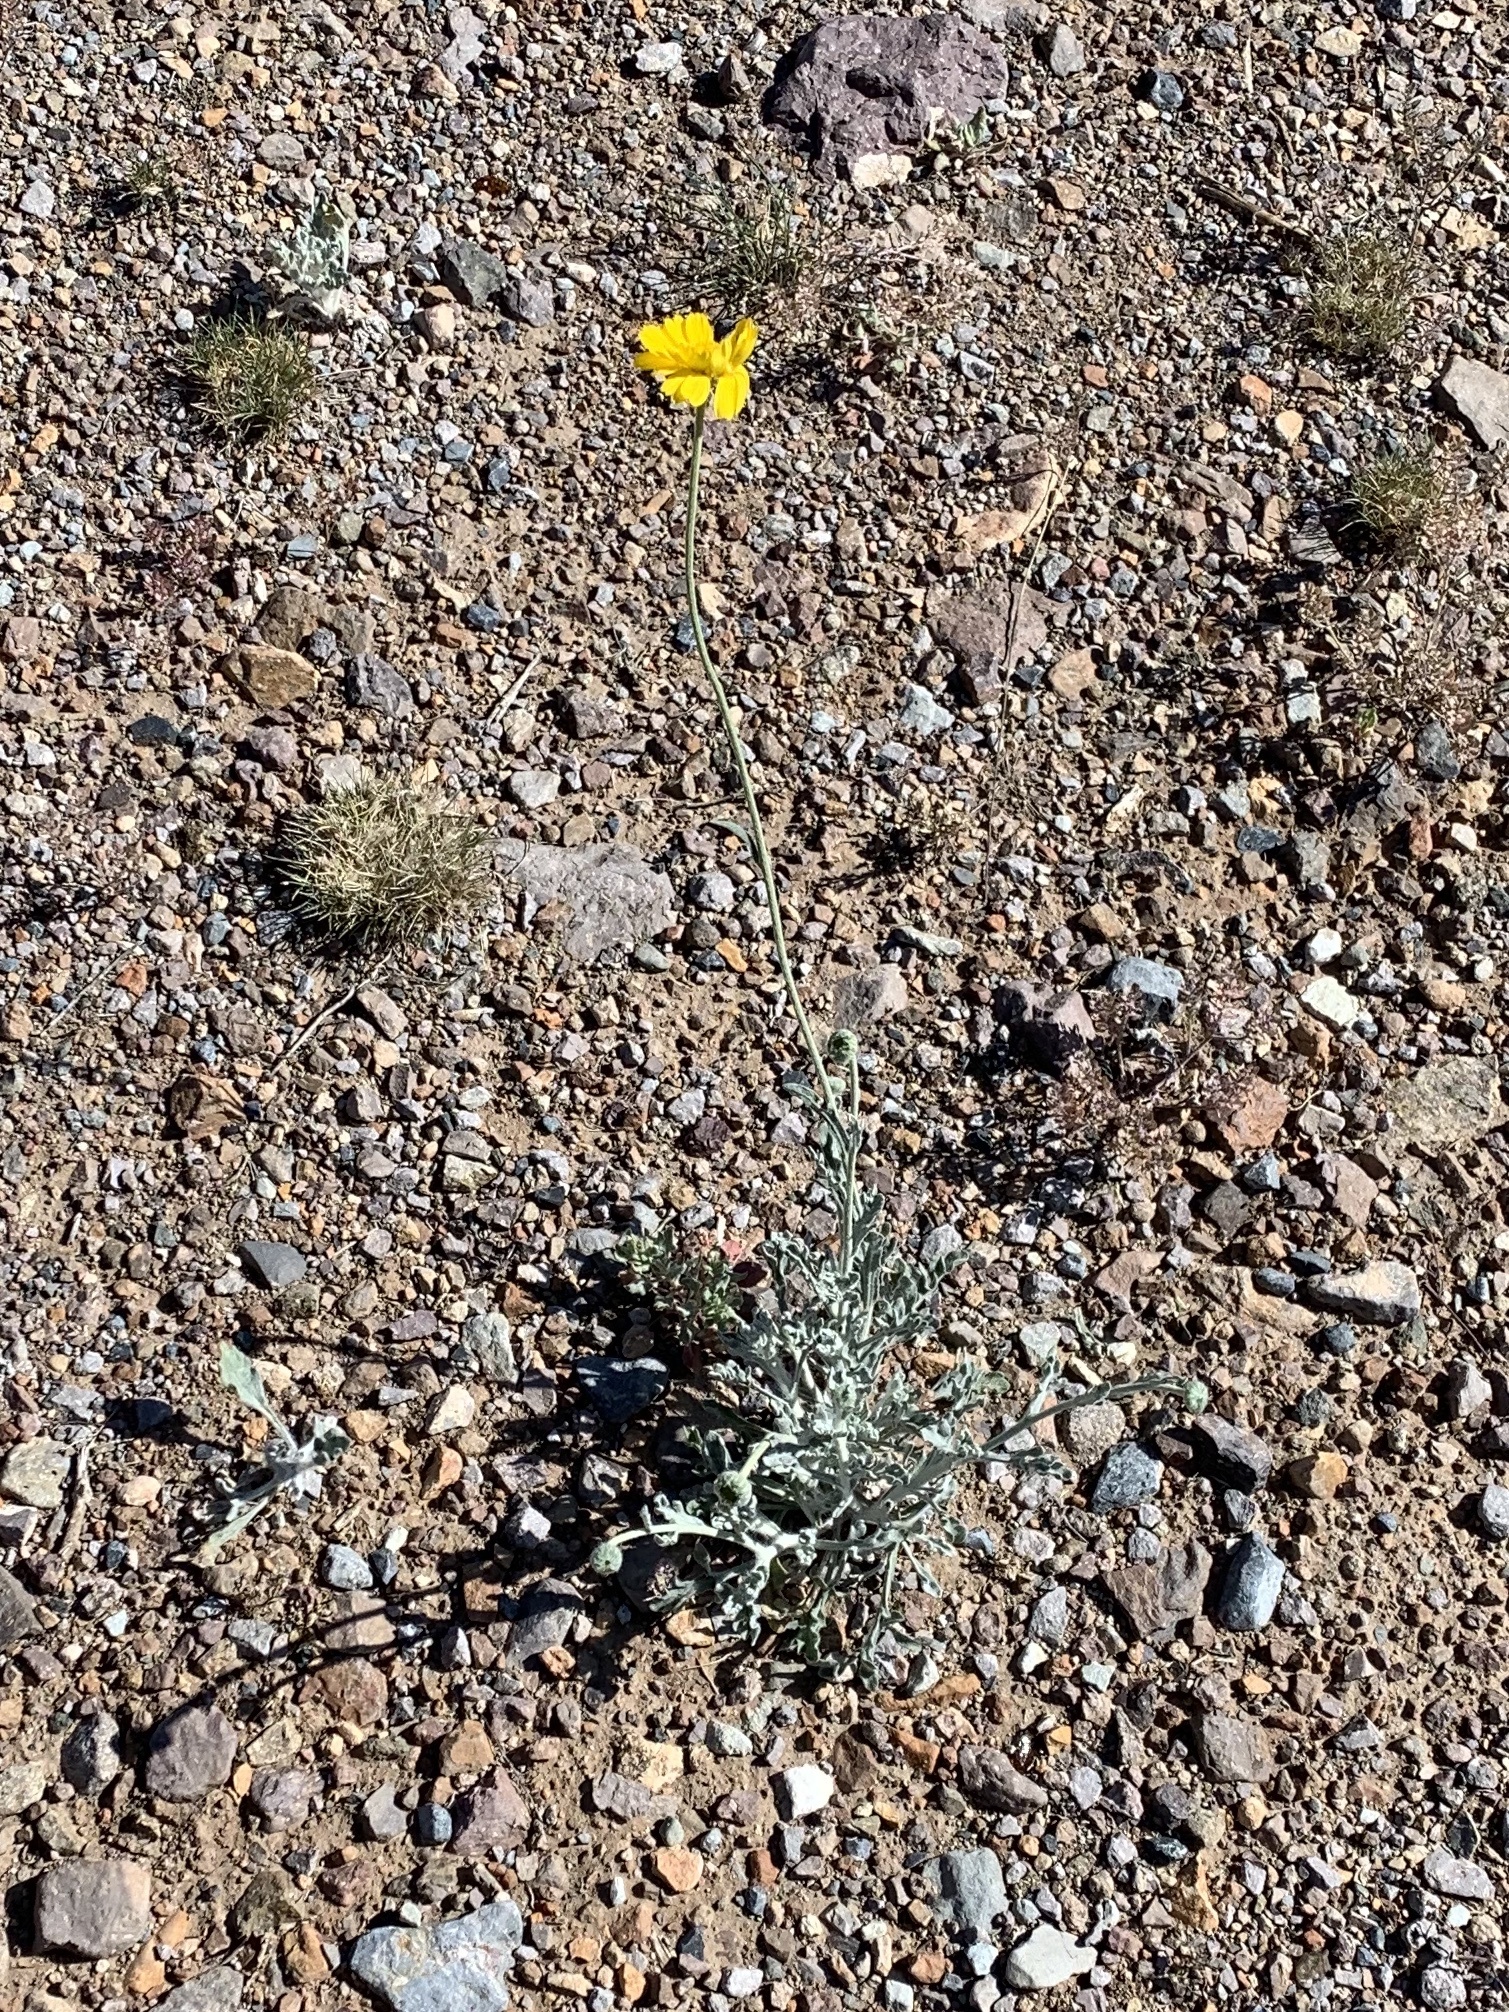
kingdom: Plantae
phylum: Tracheophyta
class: Magnoliopsida
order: Asterales
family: Asteraceae
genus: Baileya
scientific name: Baileya multiradiata
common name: Desert-marigold
